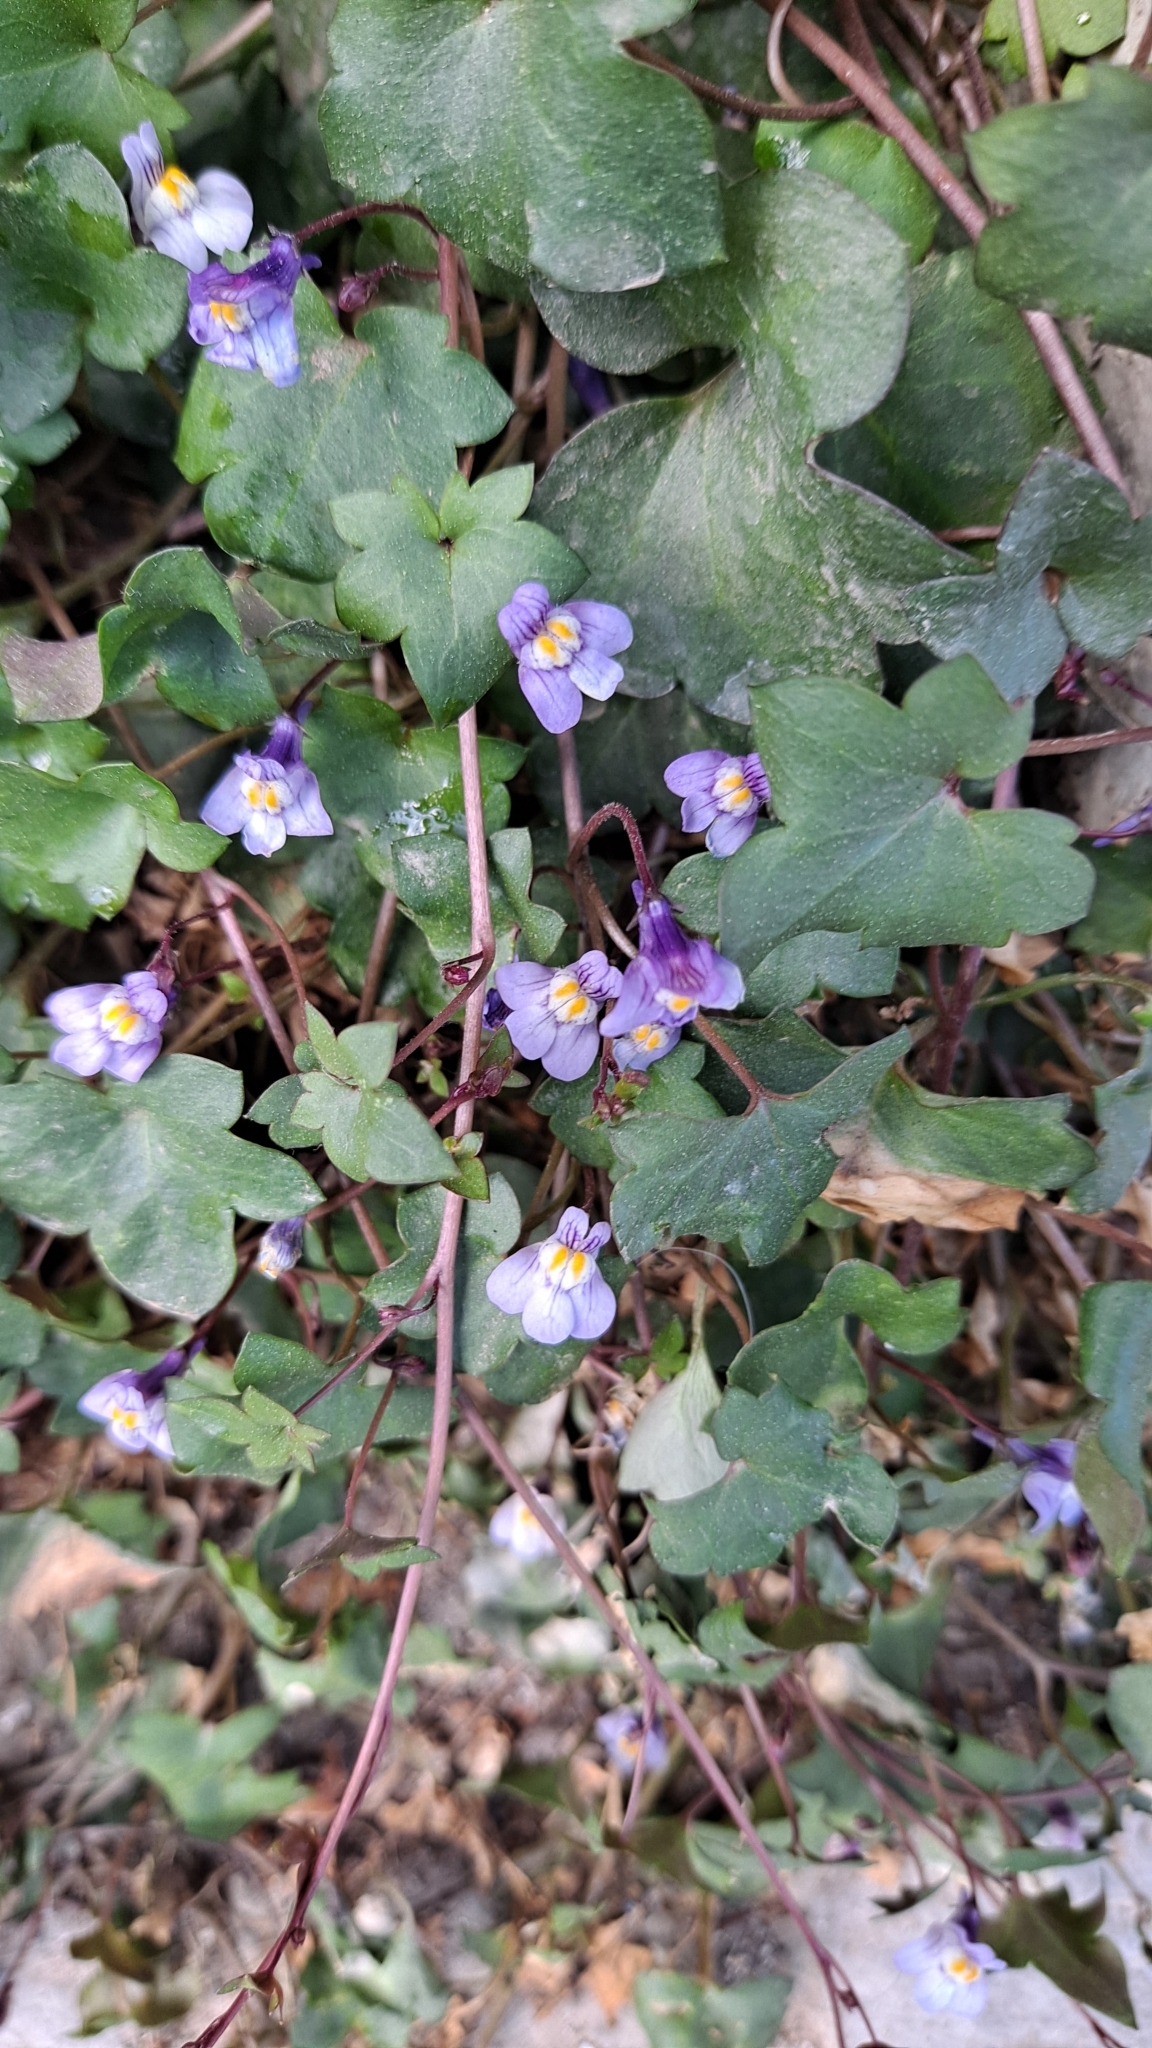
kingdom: Plantae
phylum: Tracheophyta
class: Magnoliopsida
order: Lamiales
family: Plantaginaceae
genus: Cymbalaria
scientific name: Cymbalaria muralis
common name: Ivy-leaved toadflax
